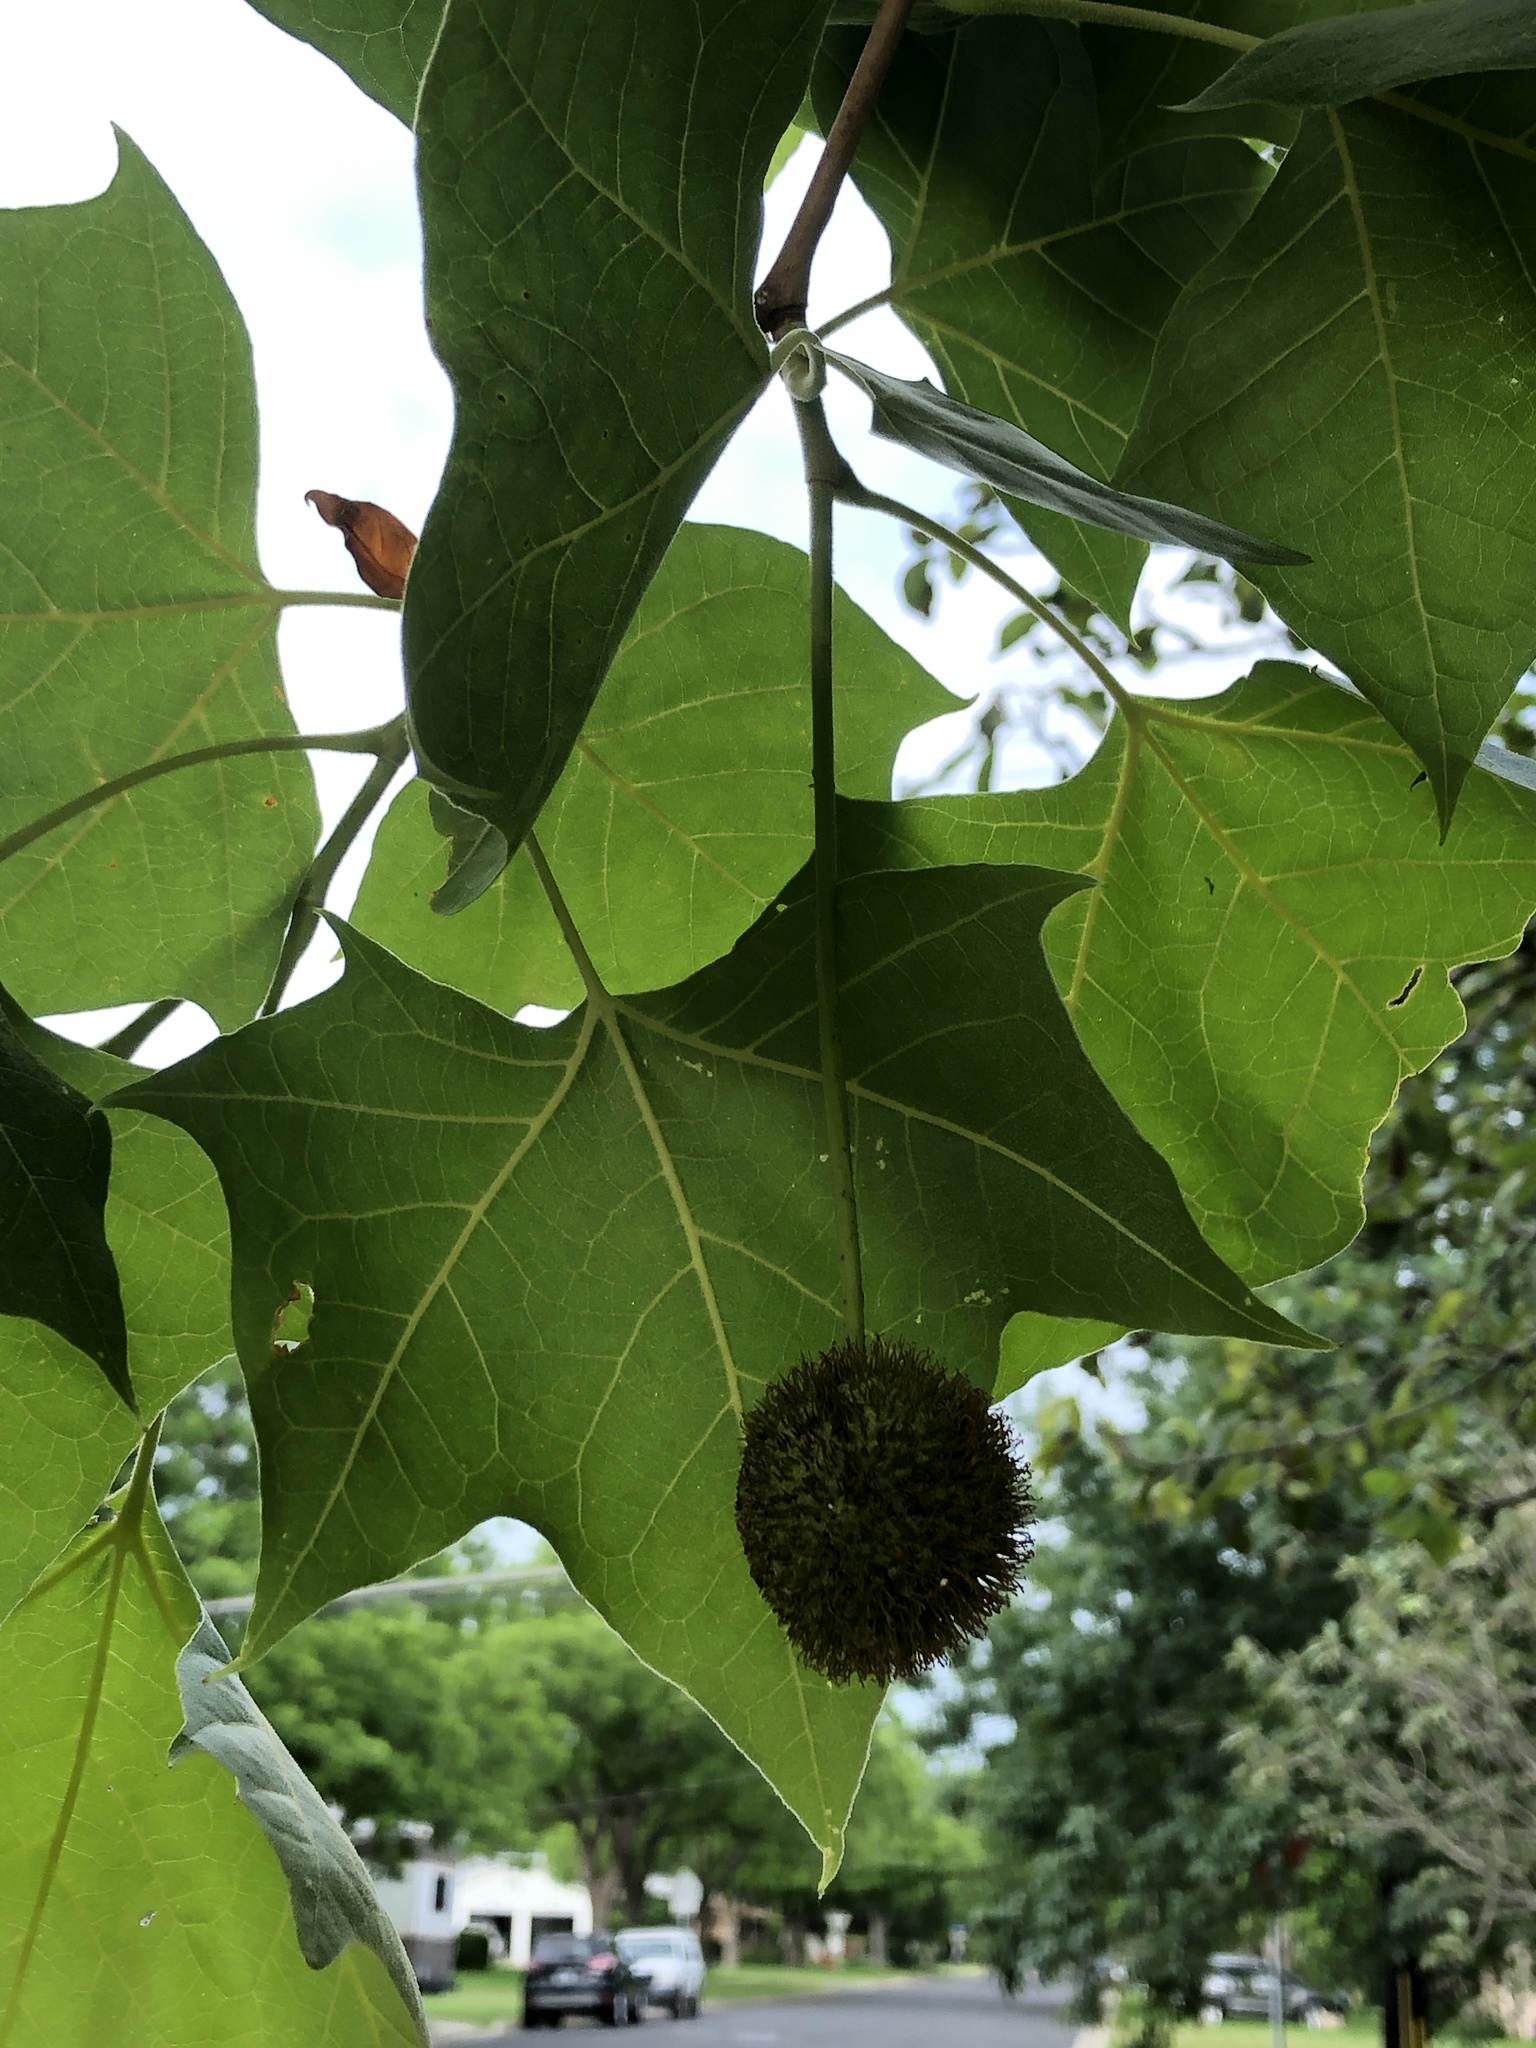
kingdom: Plantae
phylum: Tracheophyta
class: Magnoliopsida
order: Proteales
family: Platanaceae
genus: Platanus
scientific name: Platanus occidentalis
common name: American sycamore
